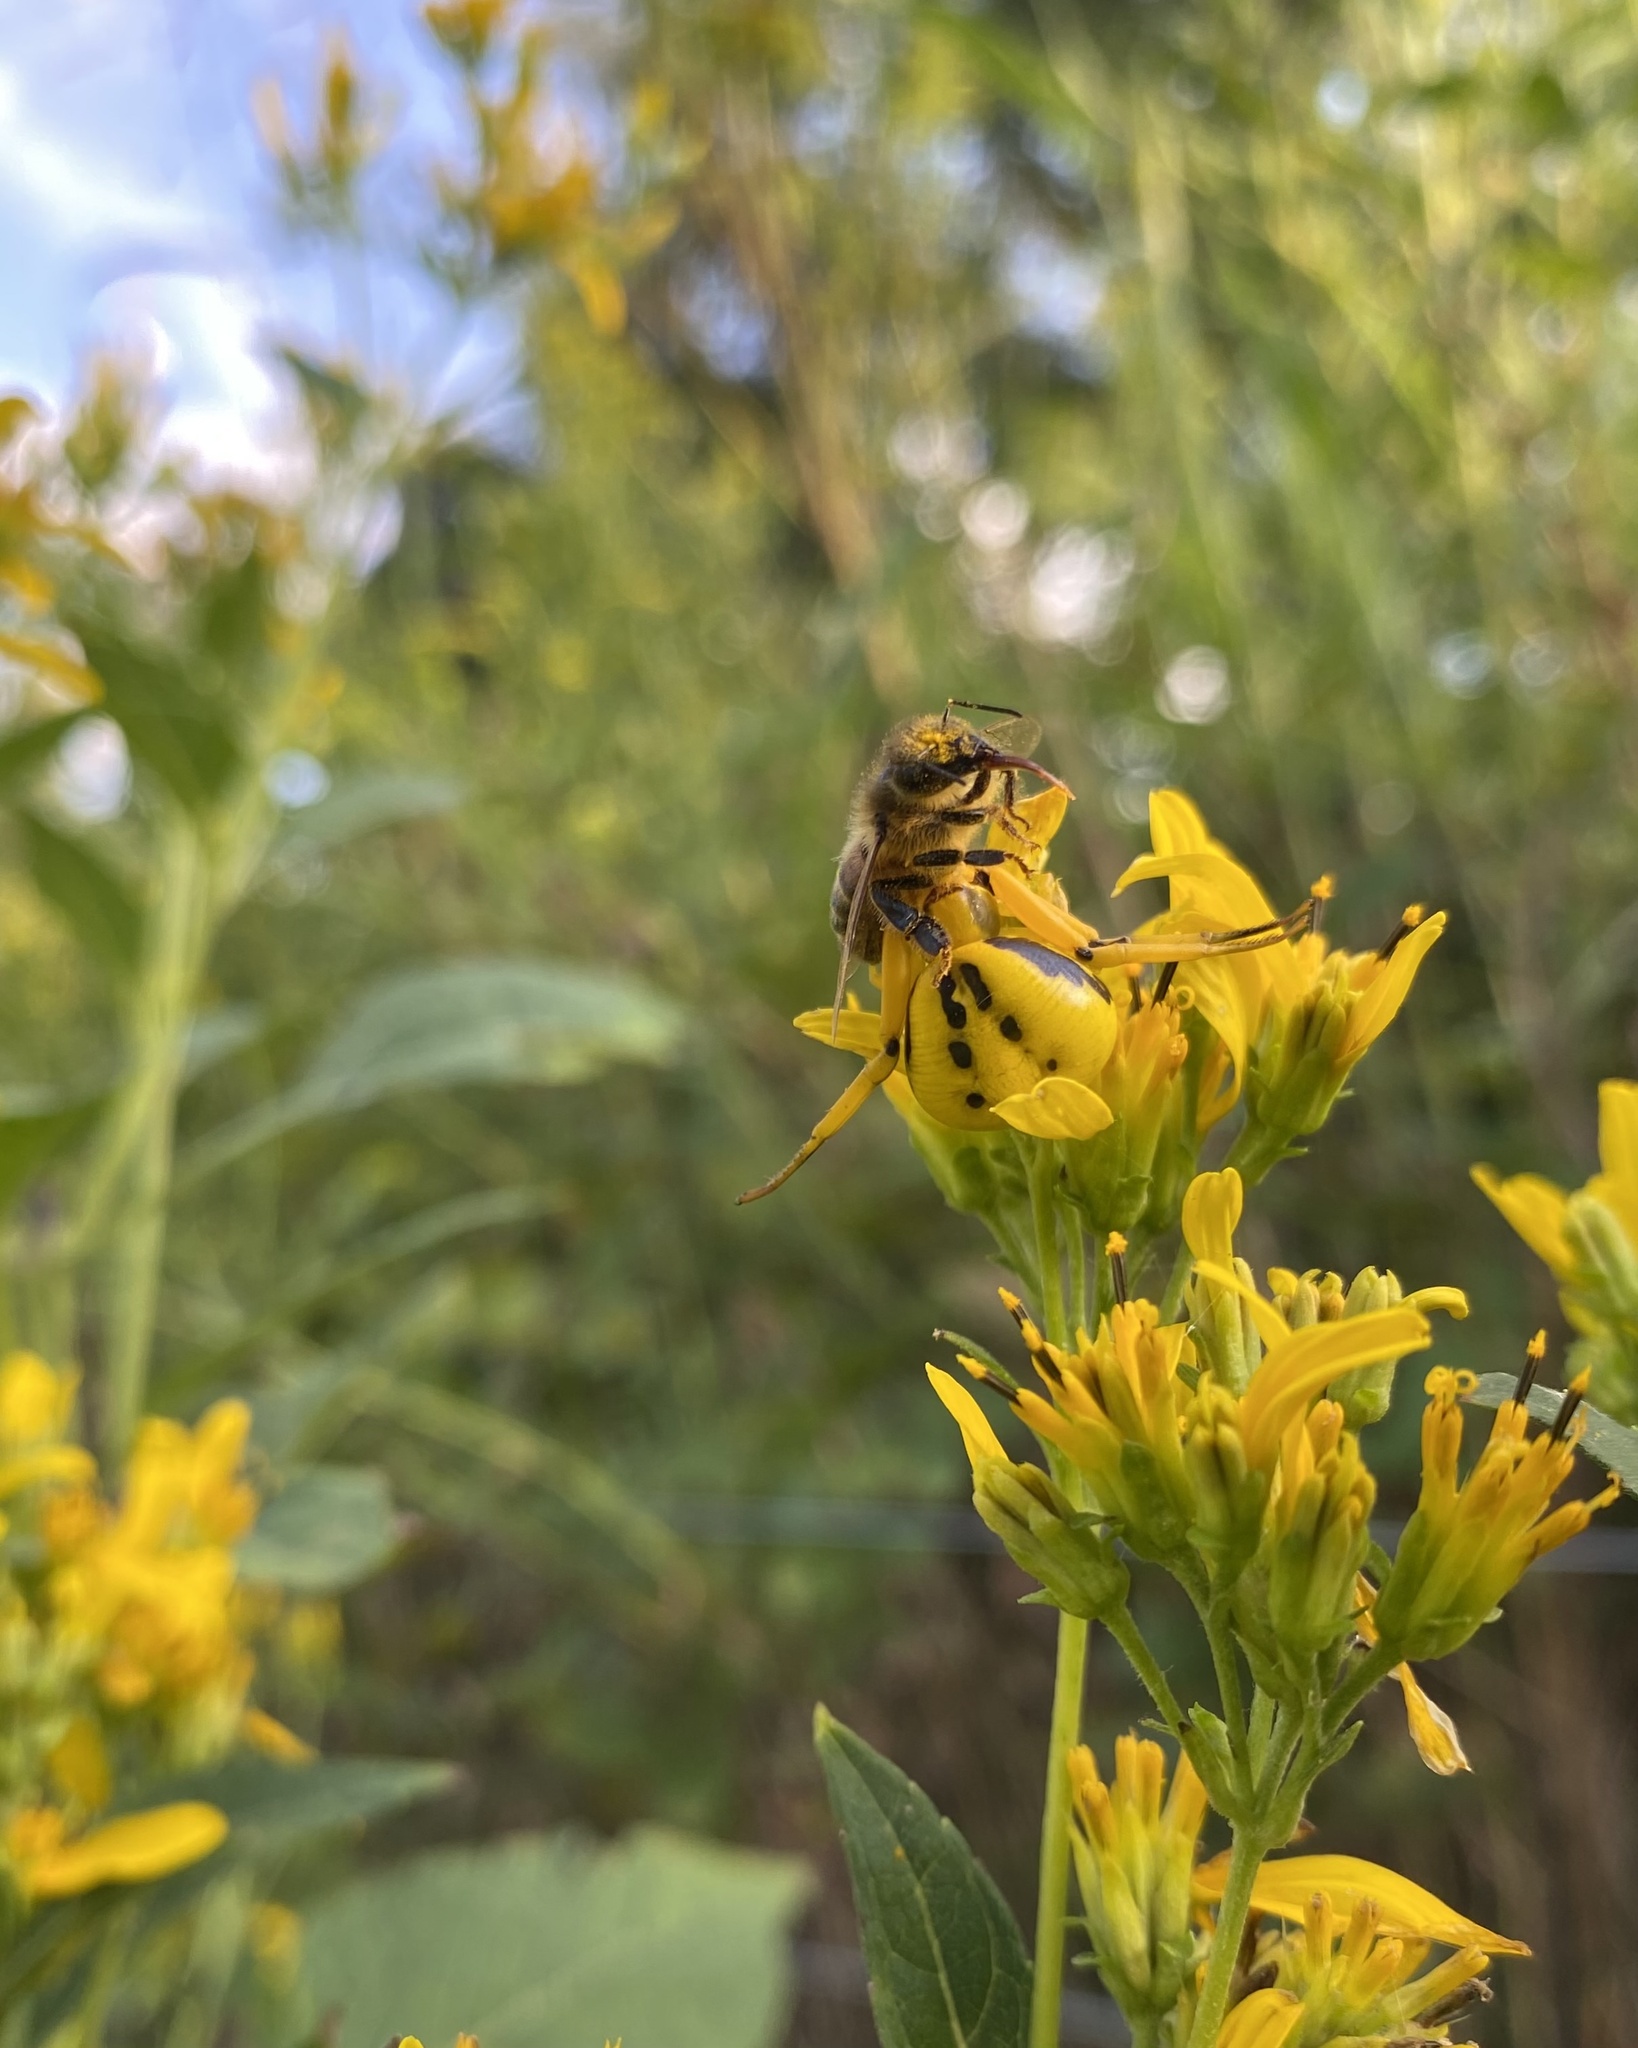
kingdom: Animalia
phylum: Arthropoda
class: Arachnida
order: Araneae
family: Thomisidae
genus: Misumenoides
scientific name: Misumenoides formosipes
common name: White-banded crab spider
